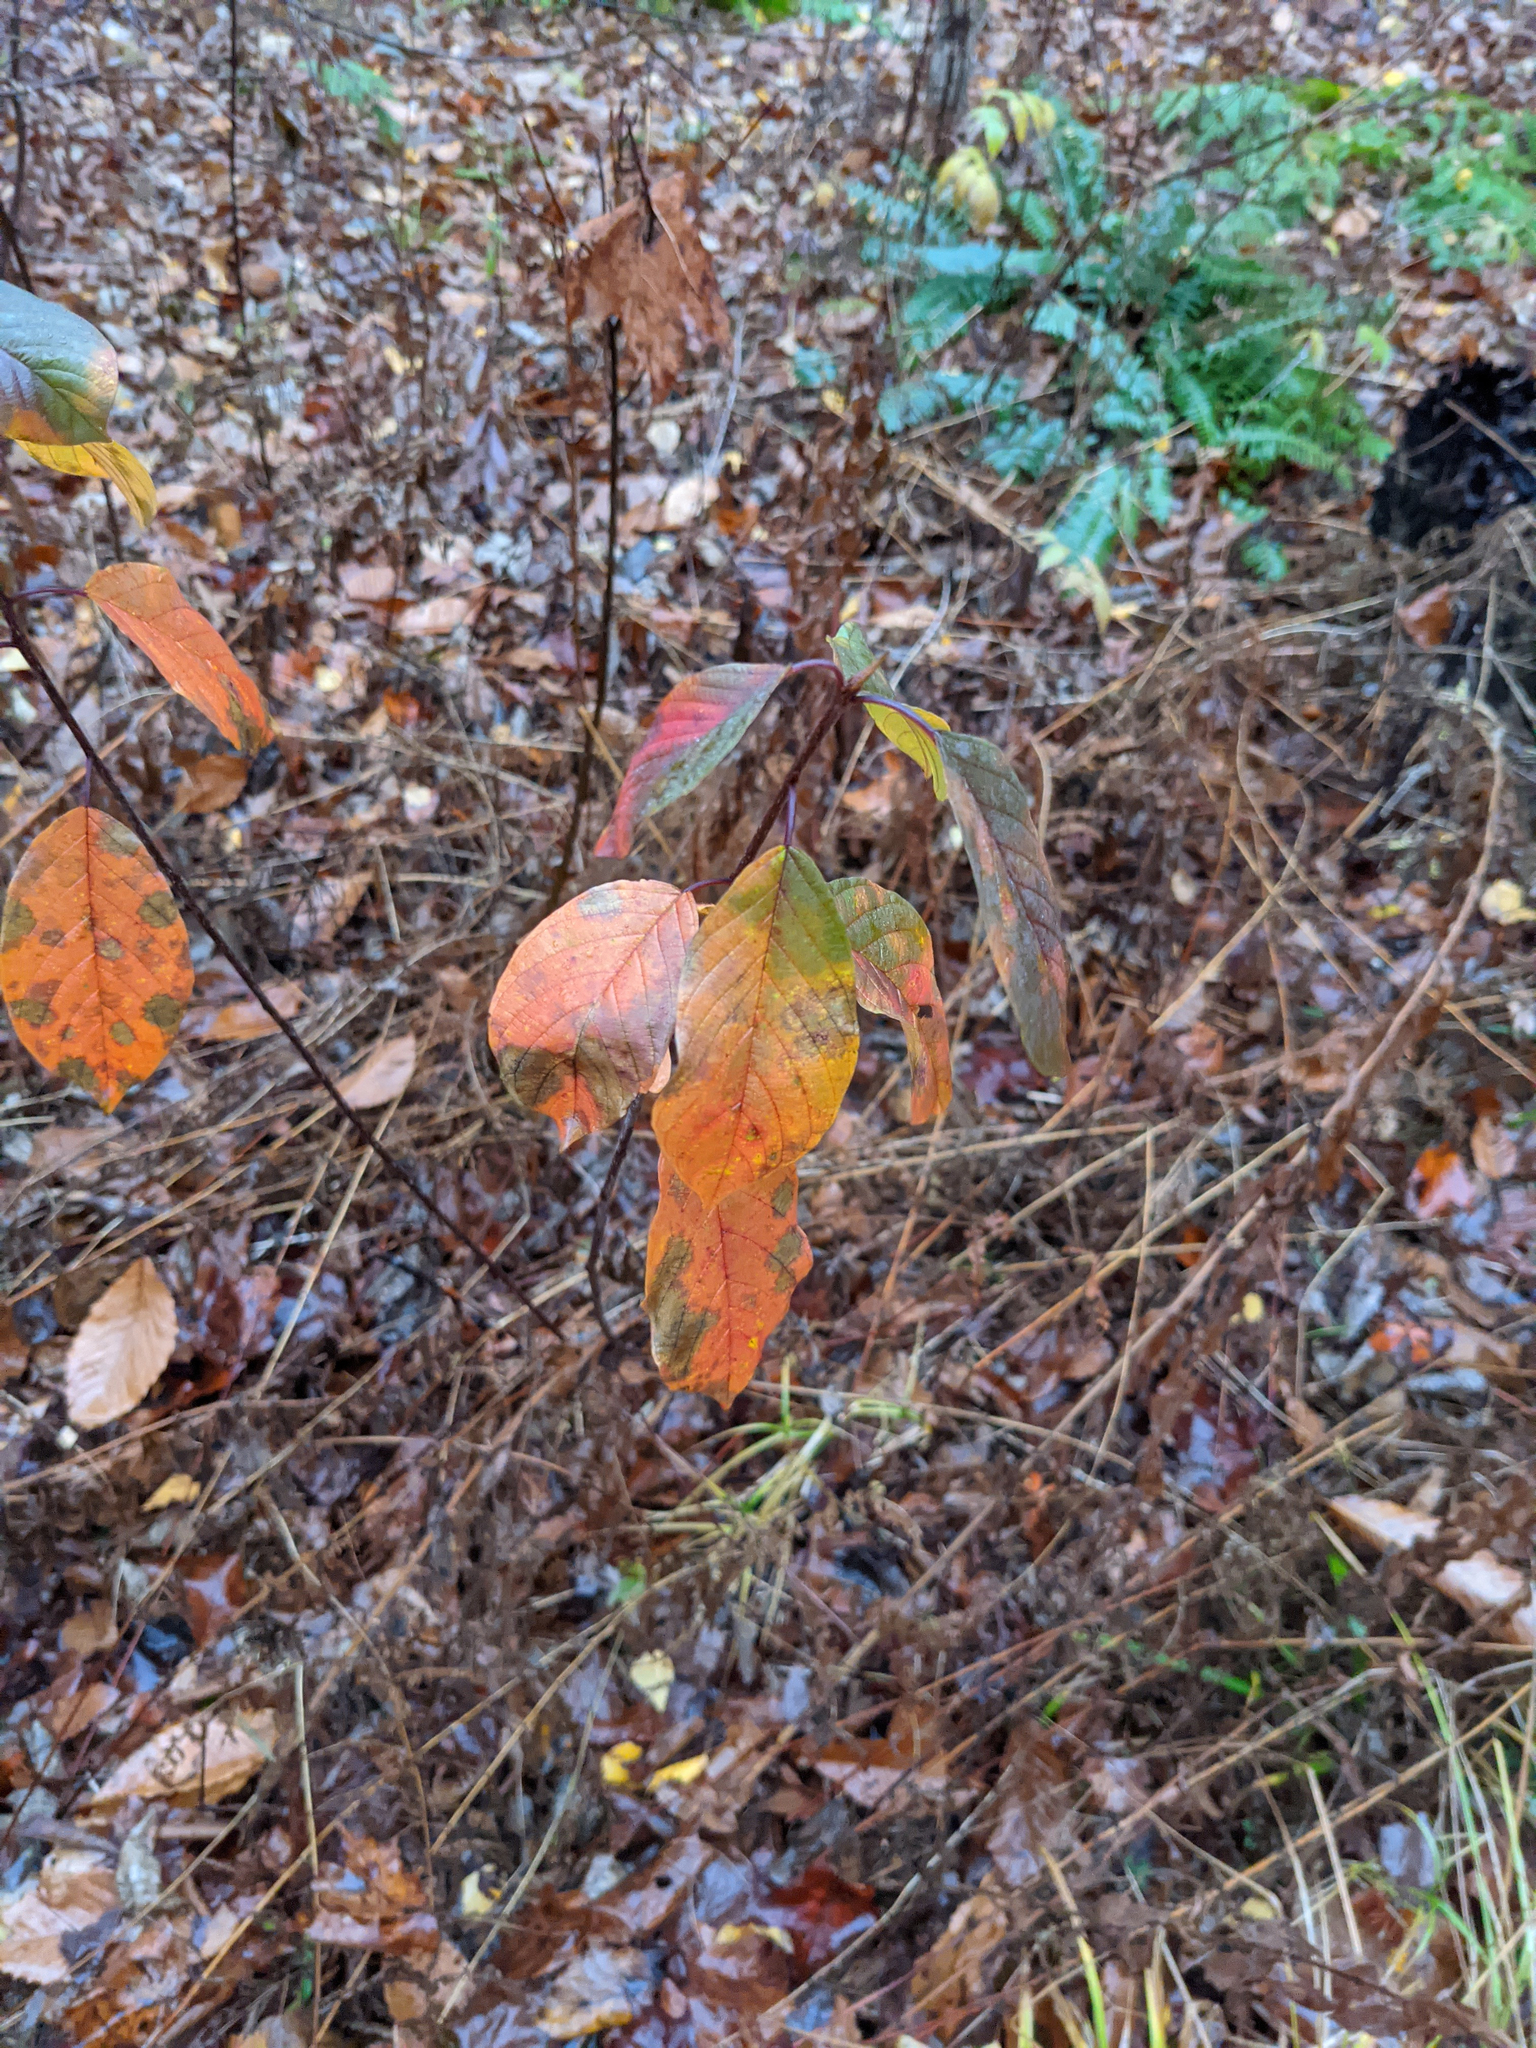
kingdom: Plantae
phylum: Tracheophyta
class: Magnoliopsida
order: Rosales
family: Rhamnaceae
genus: Frangula
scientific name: Frangula alnus
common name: Alder buckthorn
